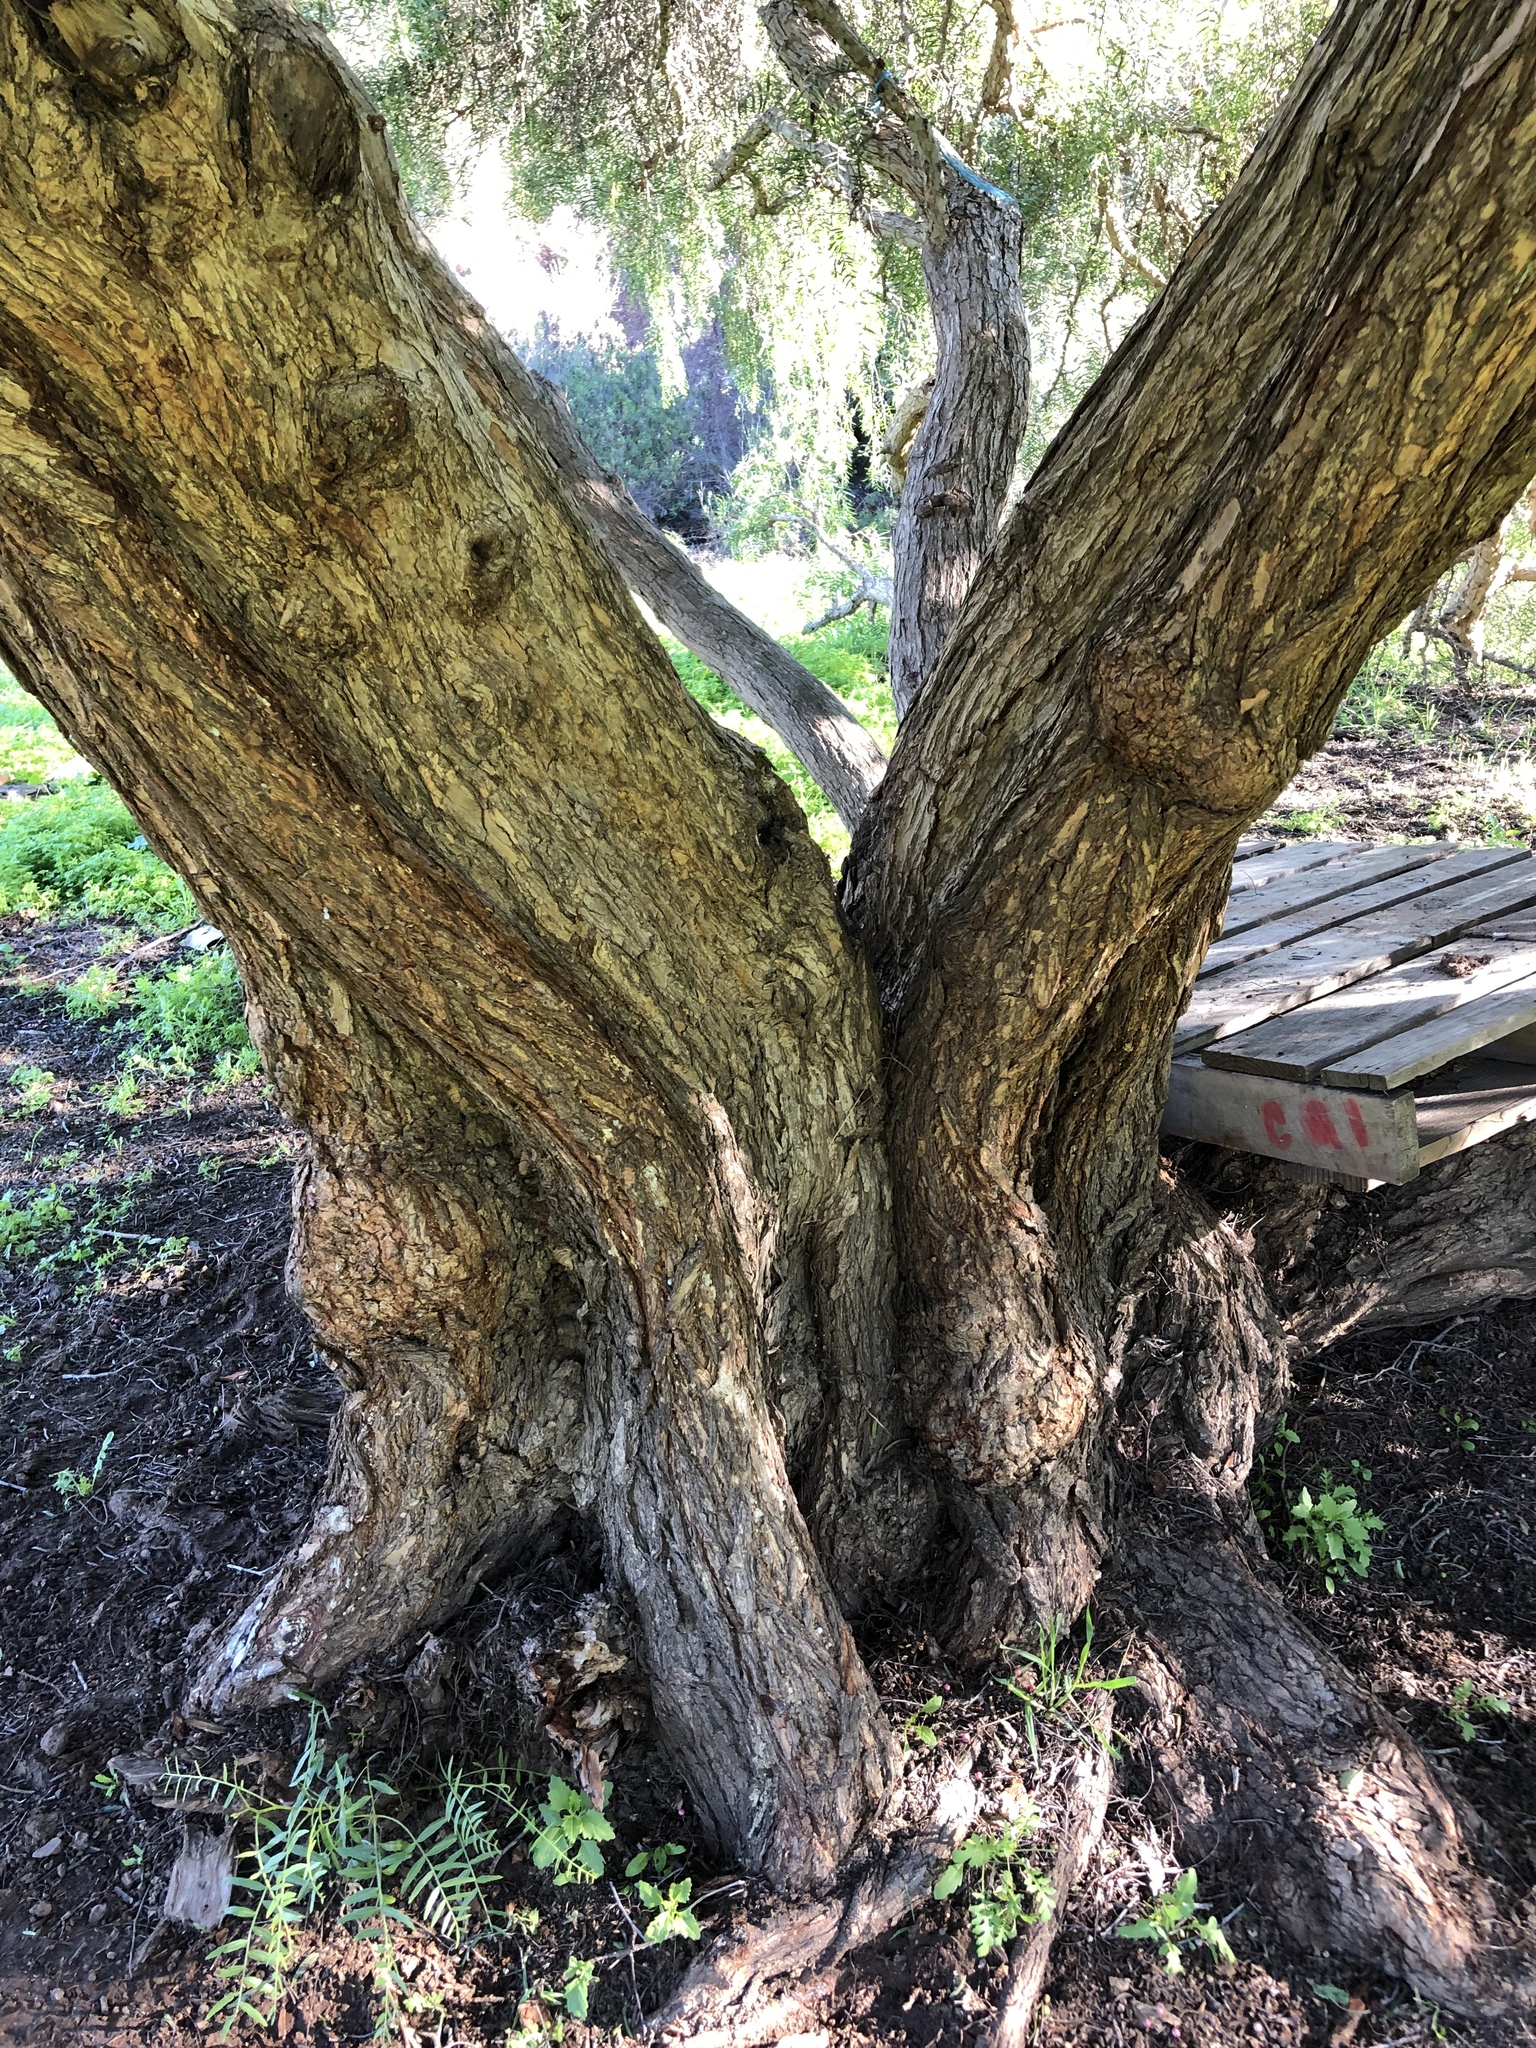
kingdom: Plantae
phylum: Tracheophyta
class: Magnoliopsida
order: Sapindales
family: Anacardiaceae
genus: Schinus
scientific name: Schinus molle
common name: Peruvian peppertree
